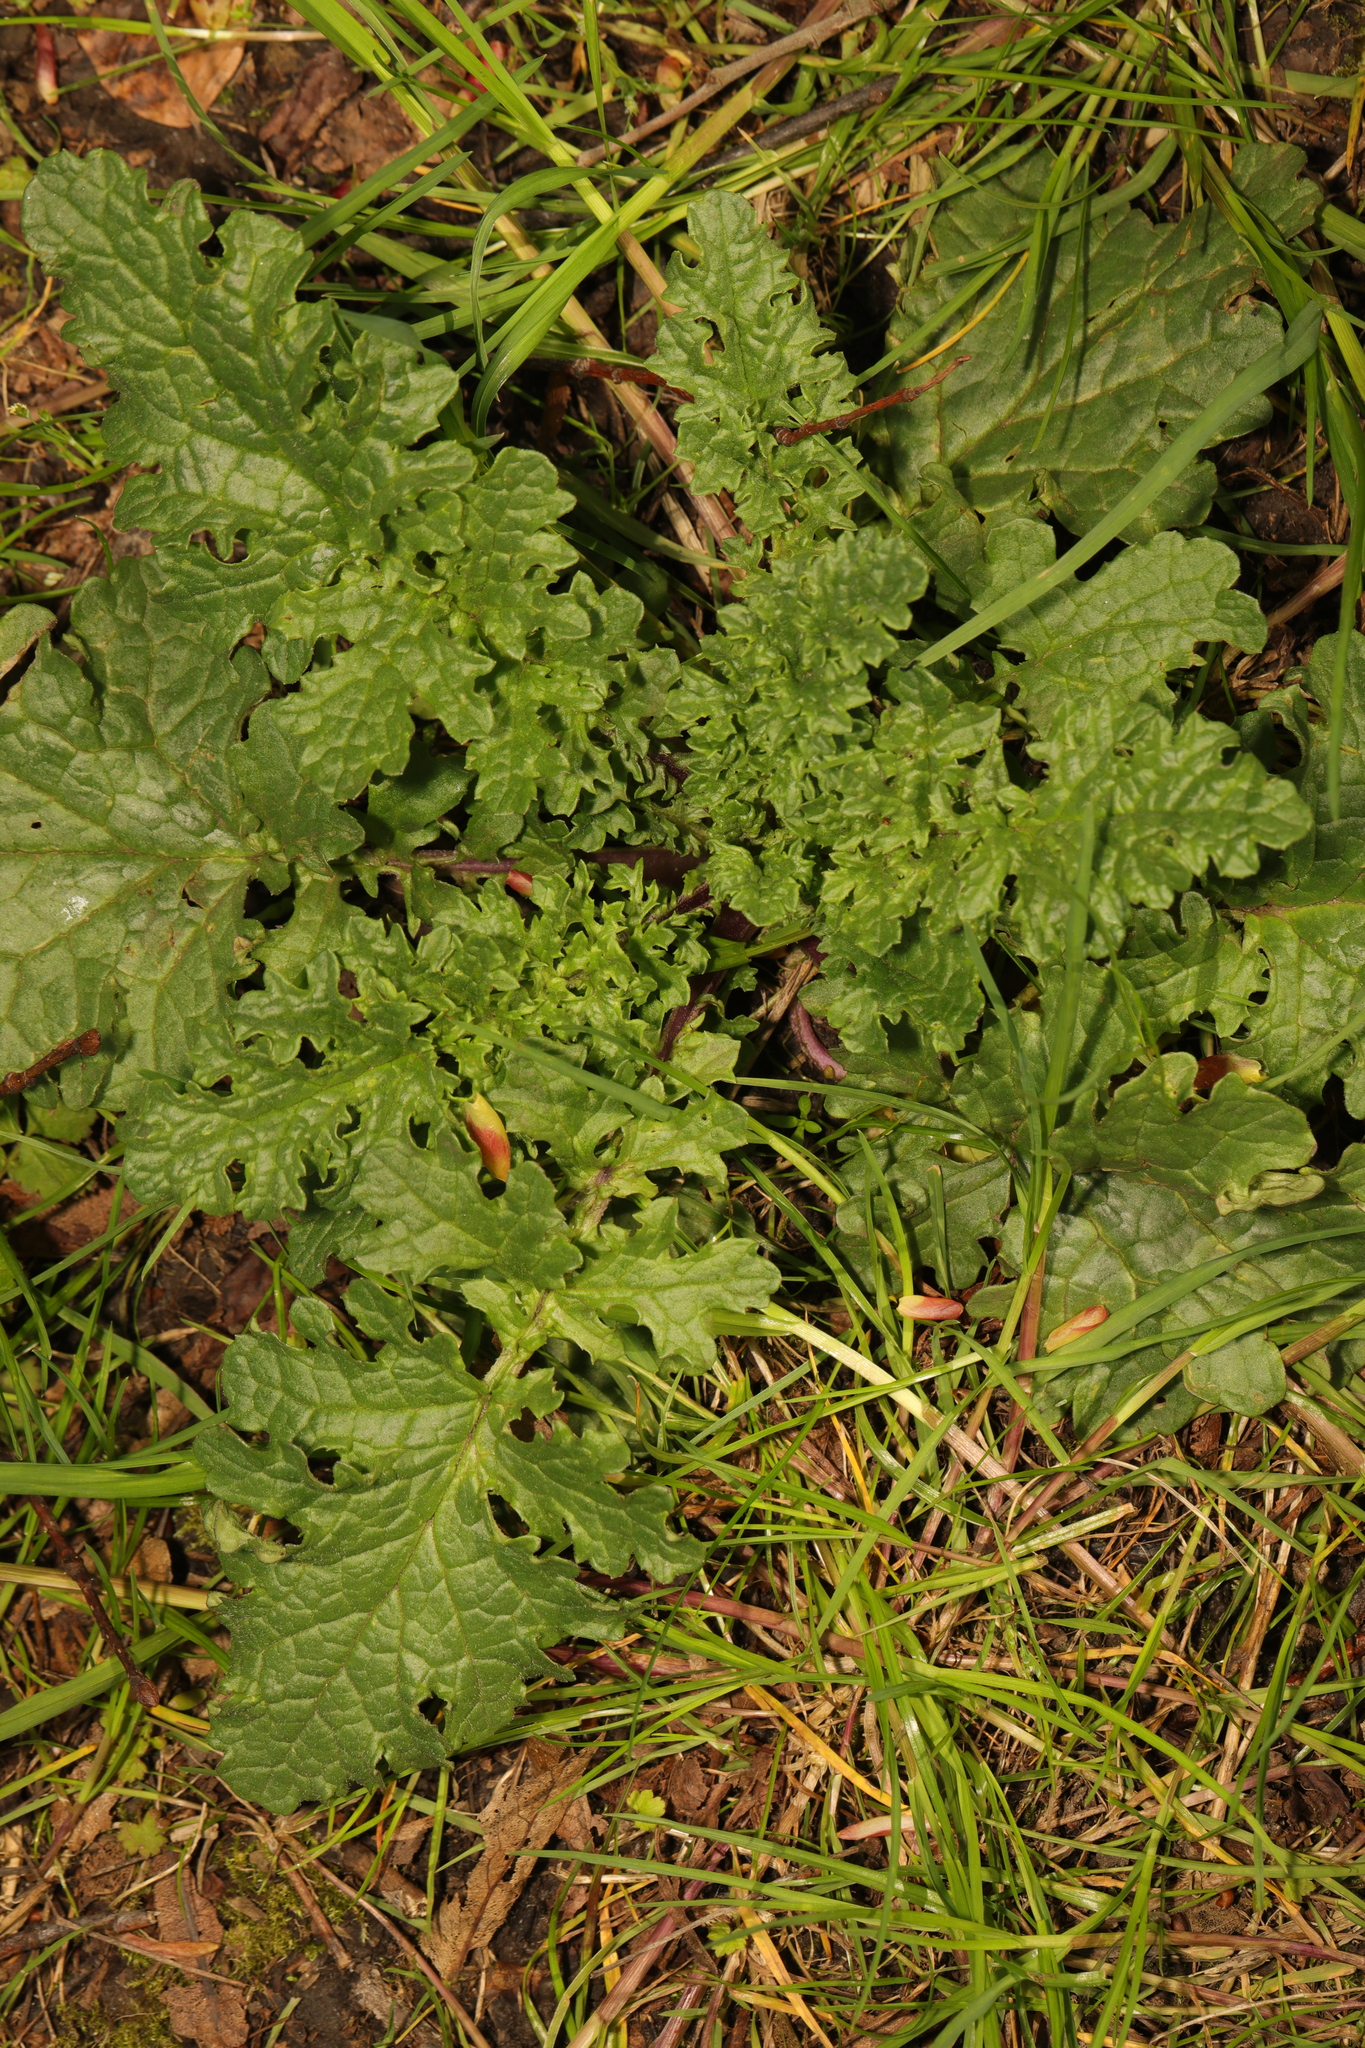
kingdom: Plantae
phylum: Tracheophyta
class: Magnoliopsida
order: Asterales
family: Asteraceae
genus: Jacobaea
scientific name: Jacobaea vulgaris
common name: Stinking willie
